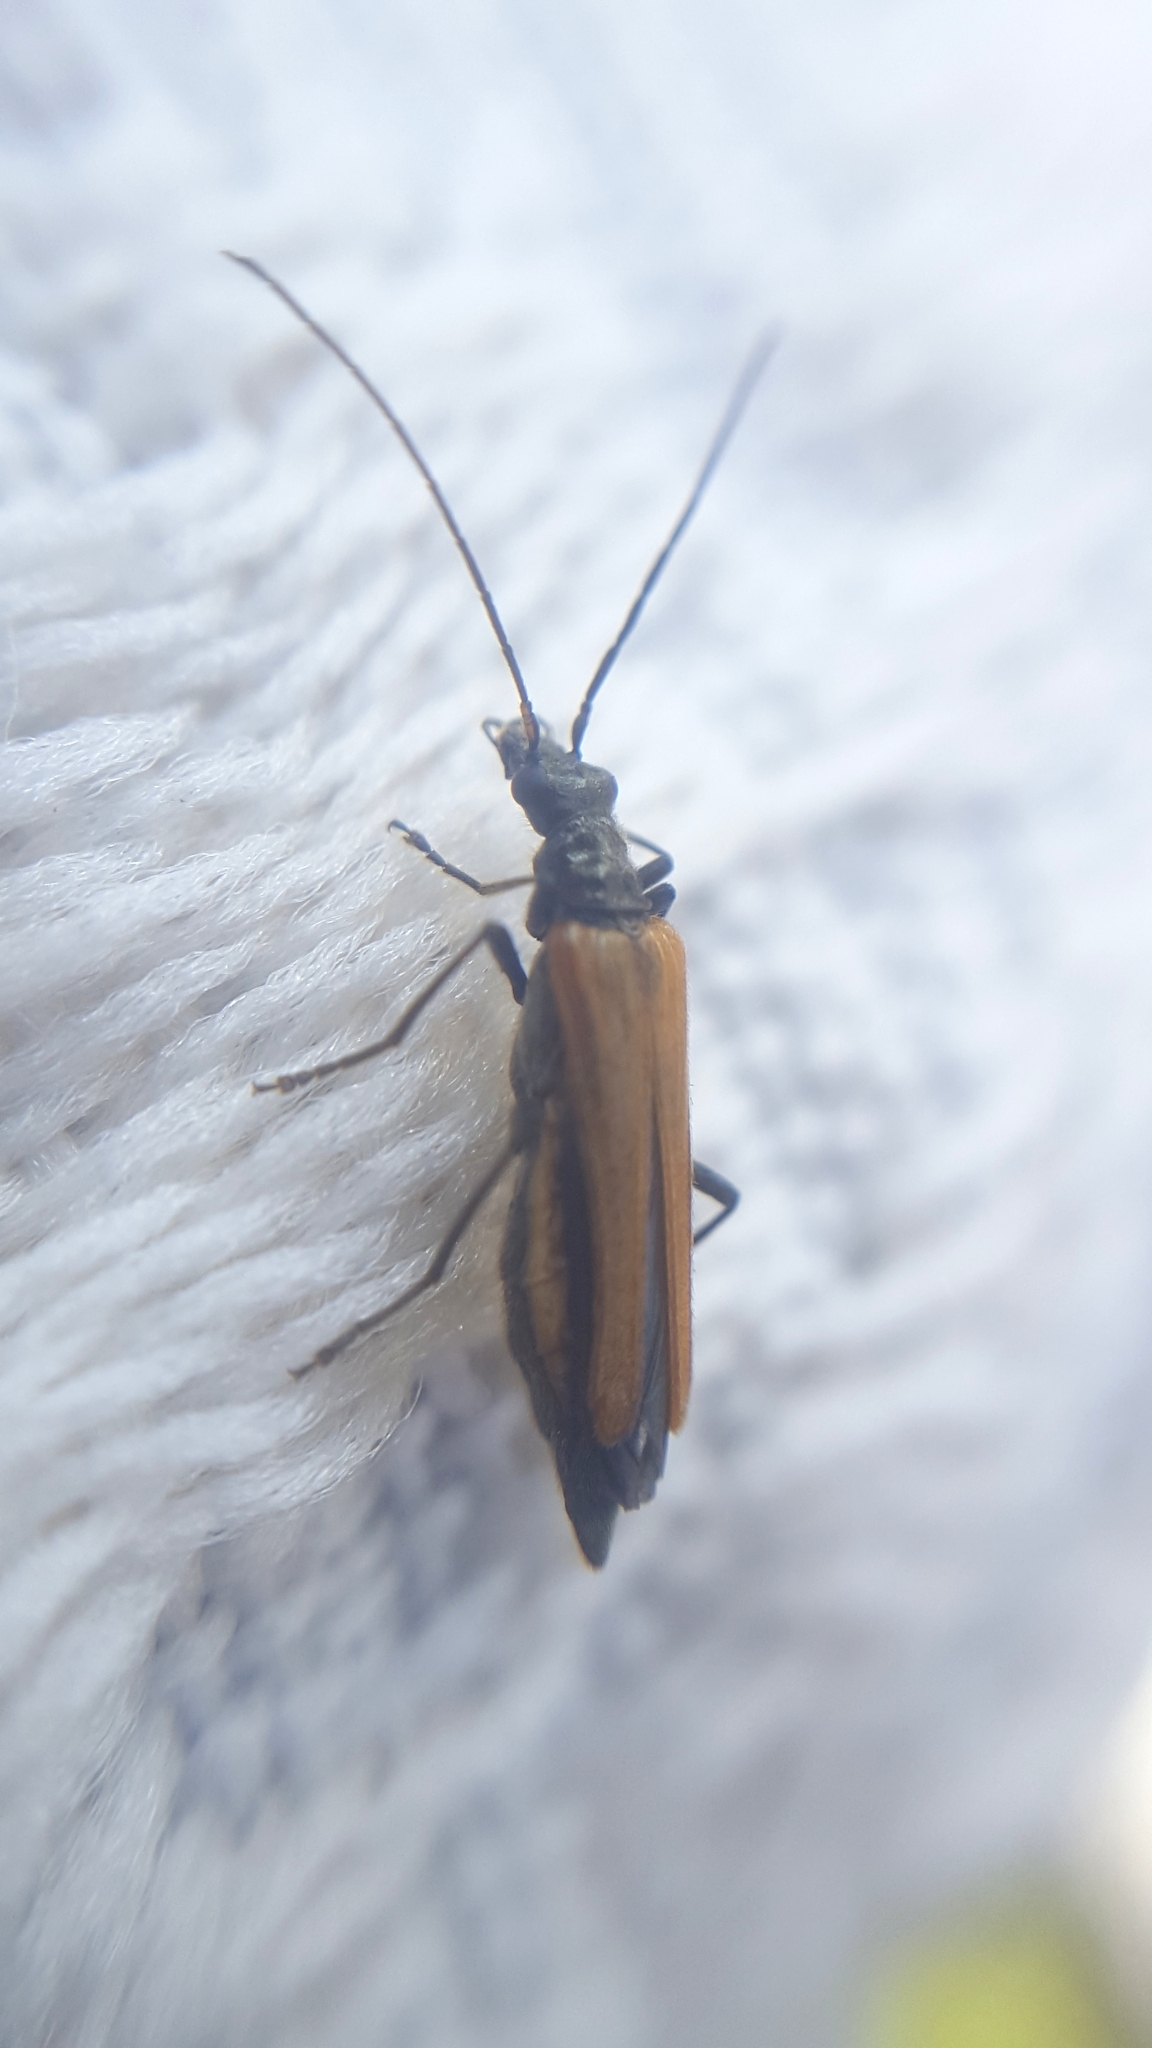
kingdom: Animalia
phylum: Arthropoda
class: Insecta
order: Coleoptera
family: Oedemeridae
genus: Oedemera
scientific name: Oedemera femorata
